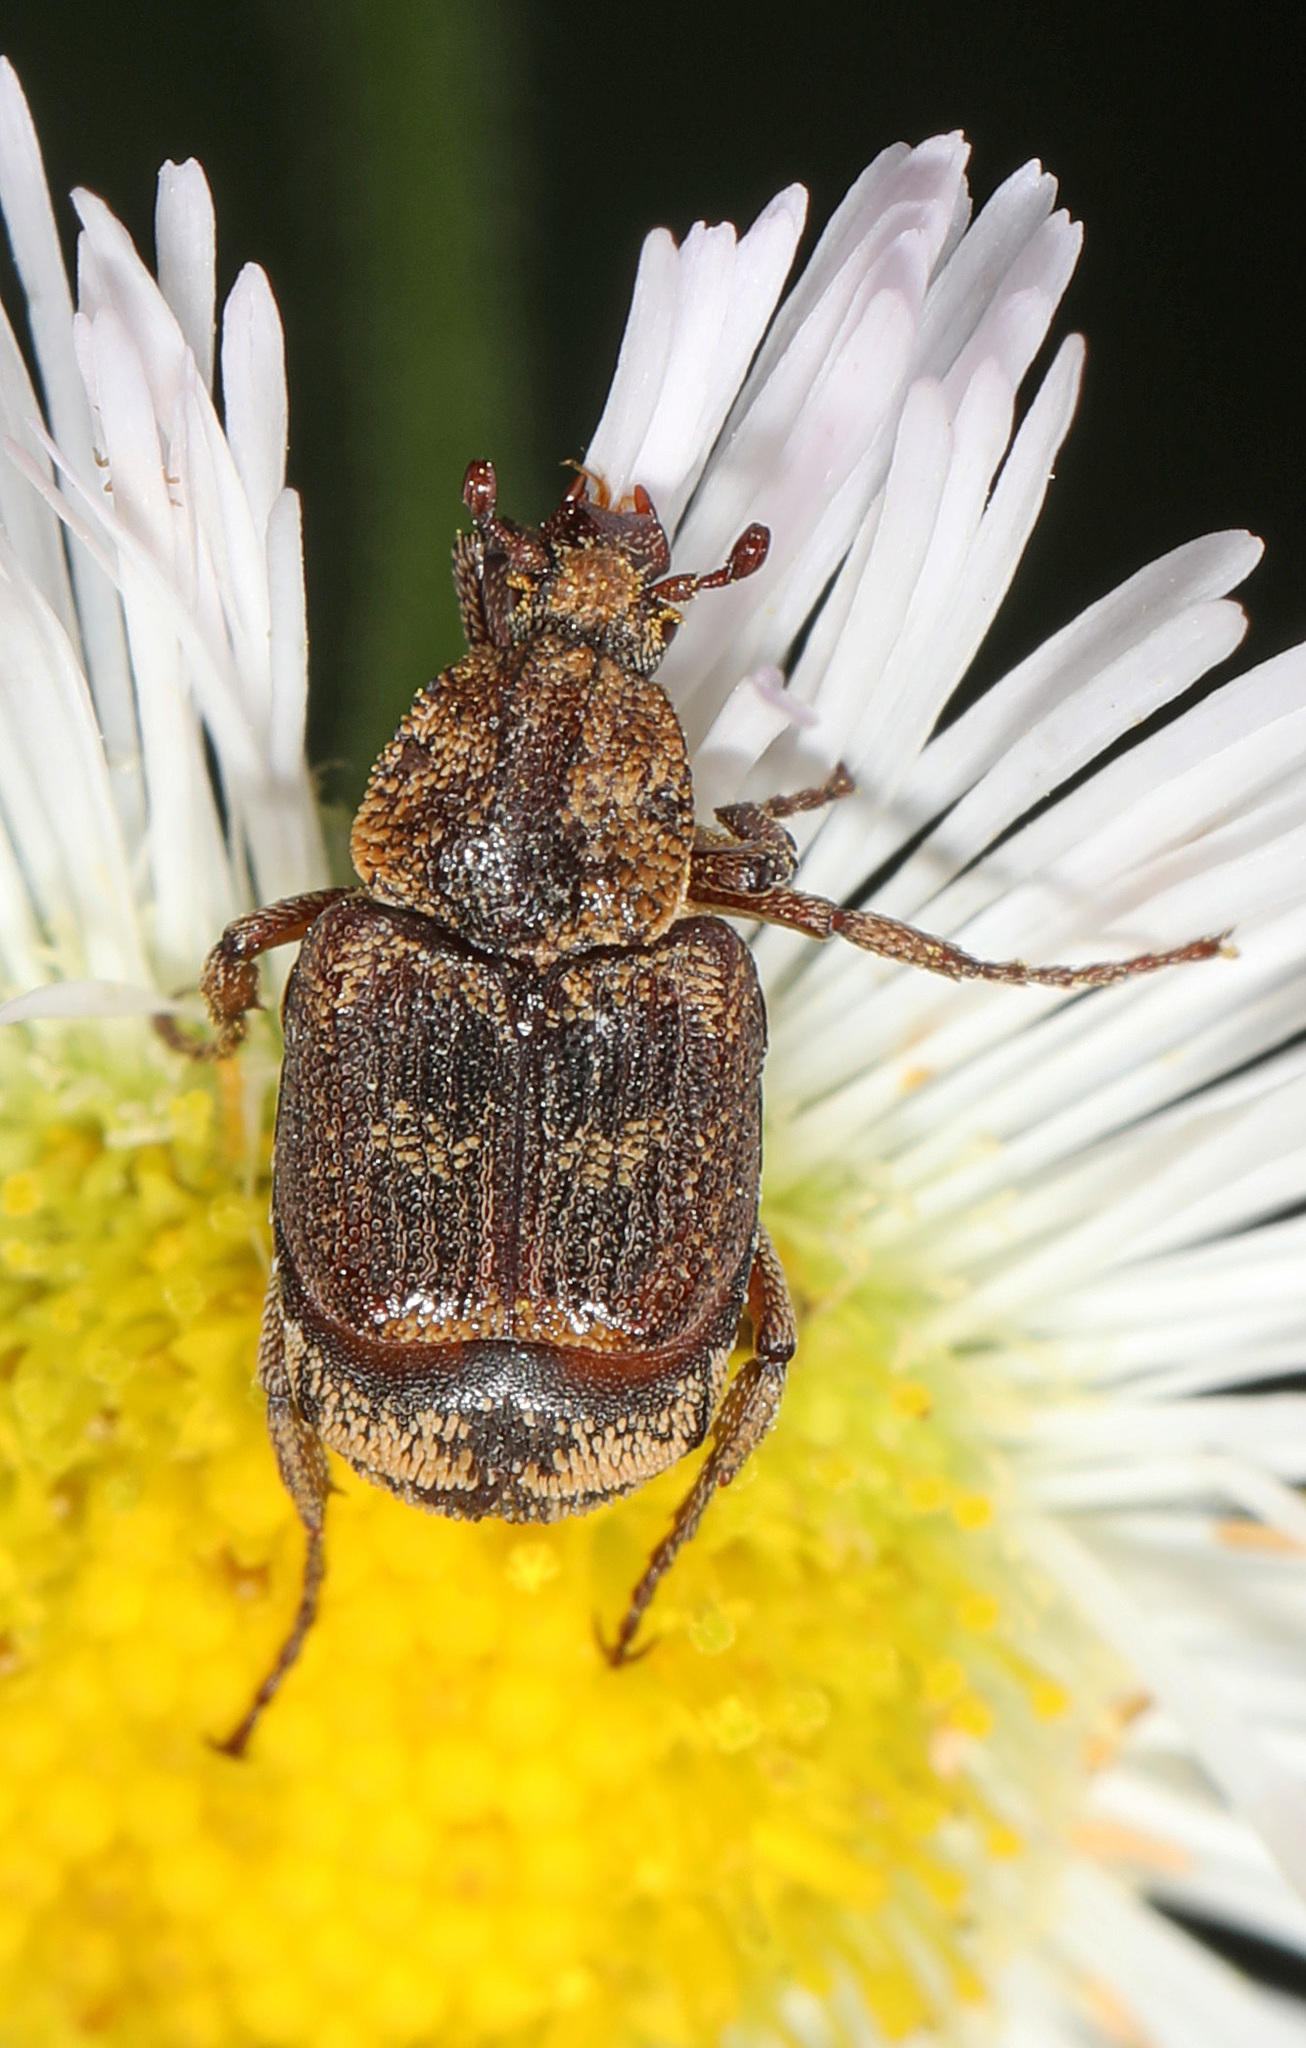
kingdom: Animalia
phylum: Arthropoda
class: Insecta
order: Coleoptera
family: Scarabaeidae
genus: Valgus
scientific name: Valgus canaliculatus
